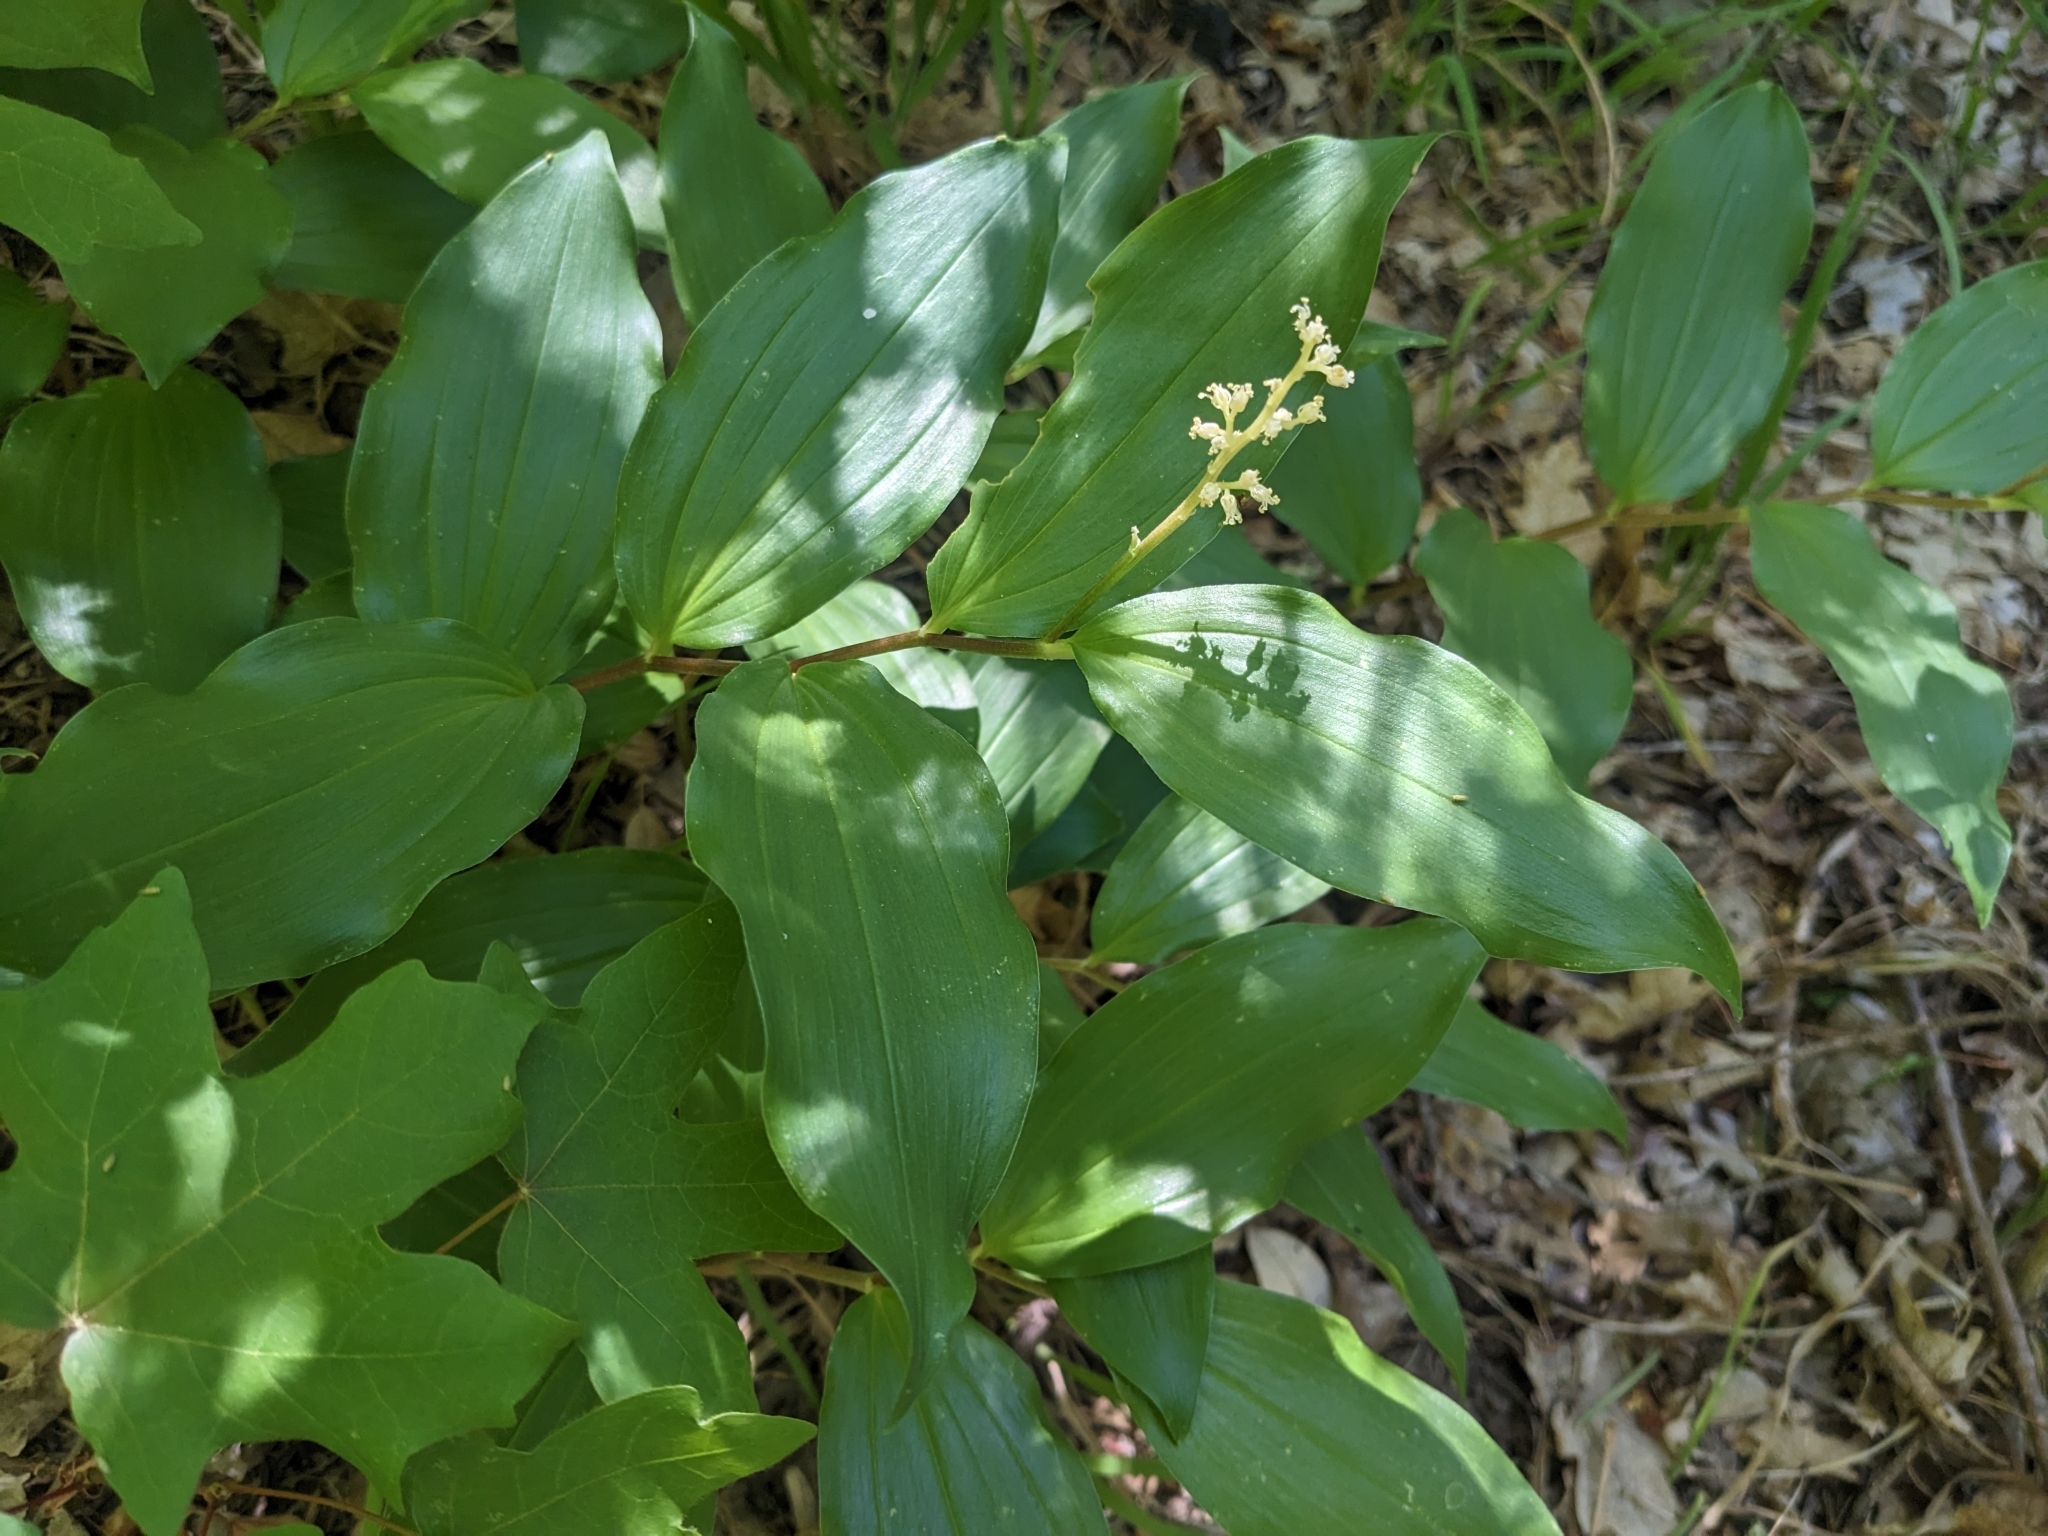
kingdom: Plantae
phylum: Tracheophyta
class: Liliopsida
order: Asparagales
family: Asparagaceae
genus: Maianthemum
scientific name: Maianthemum racemosum
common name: False spikenard
